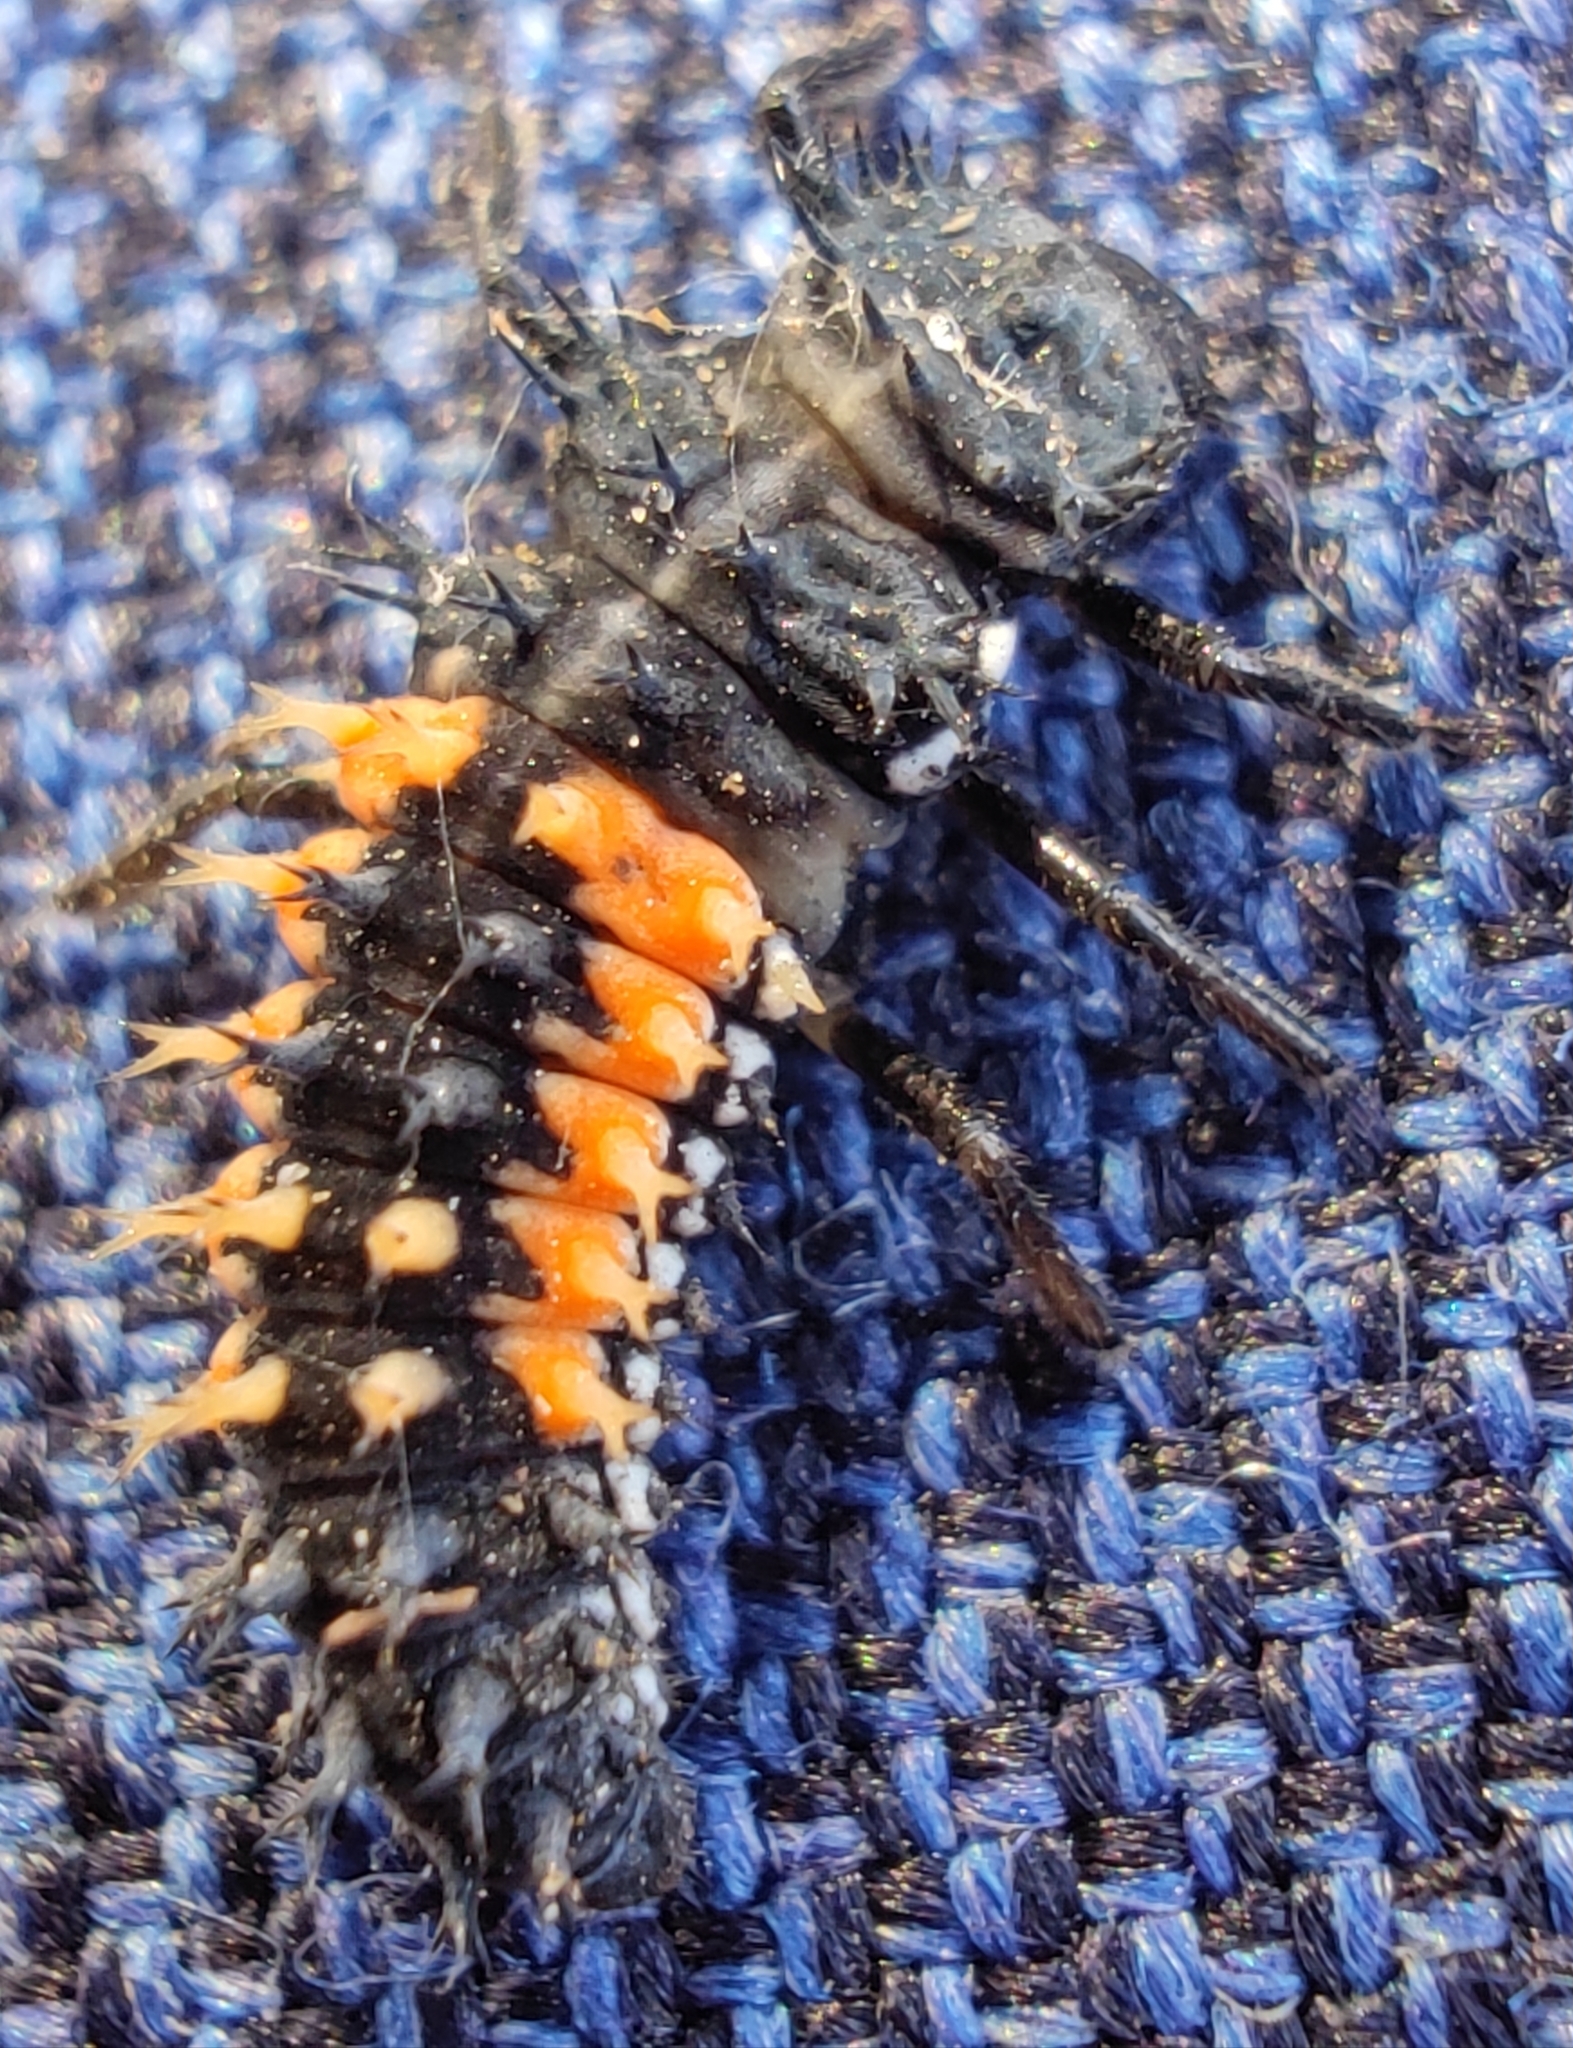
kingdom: Animalia
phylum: Arthropoda
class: Insecta
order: Coleoptera
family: Coccinellidae
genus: Harmonia
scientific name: Harmonia axyridis
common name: Harlequin ladybird
